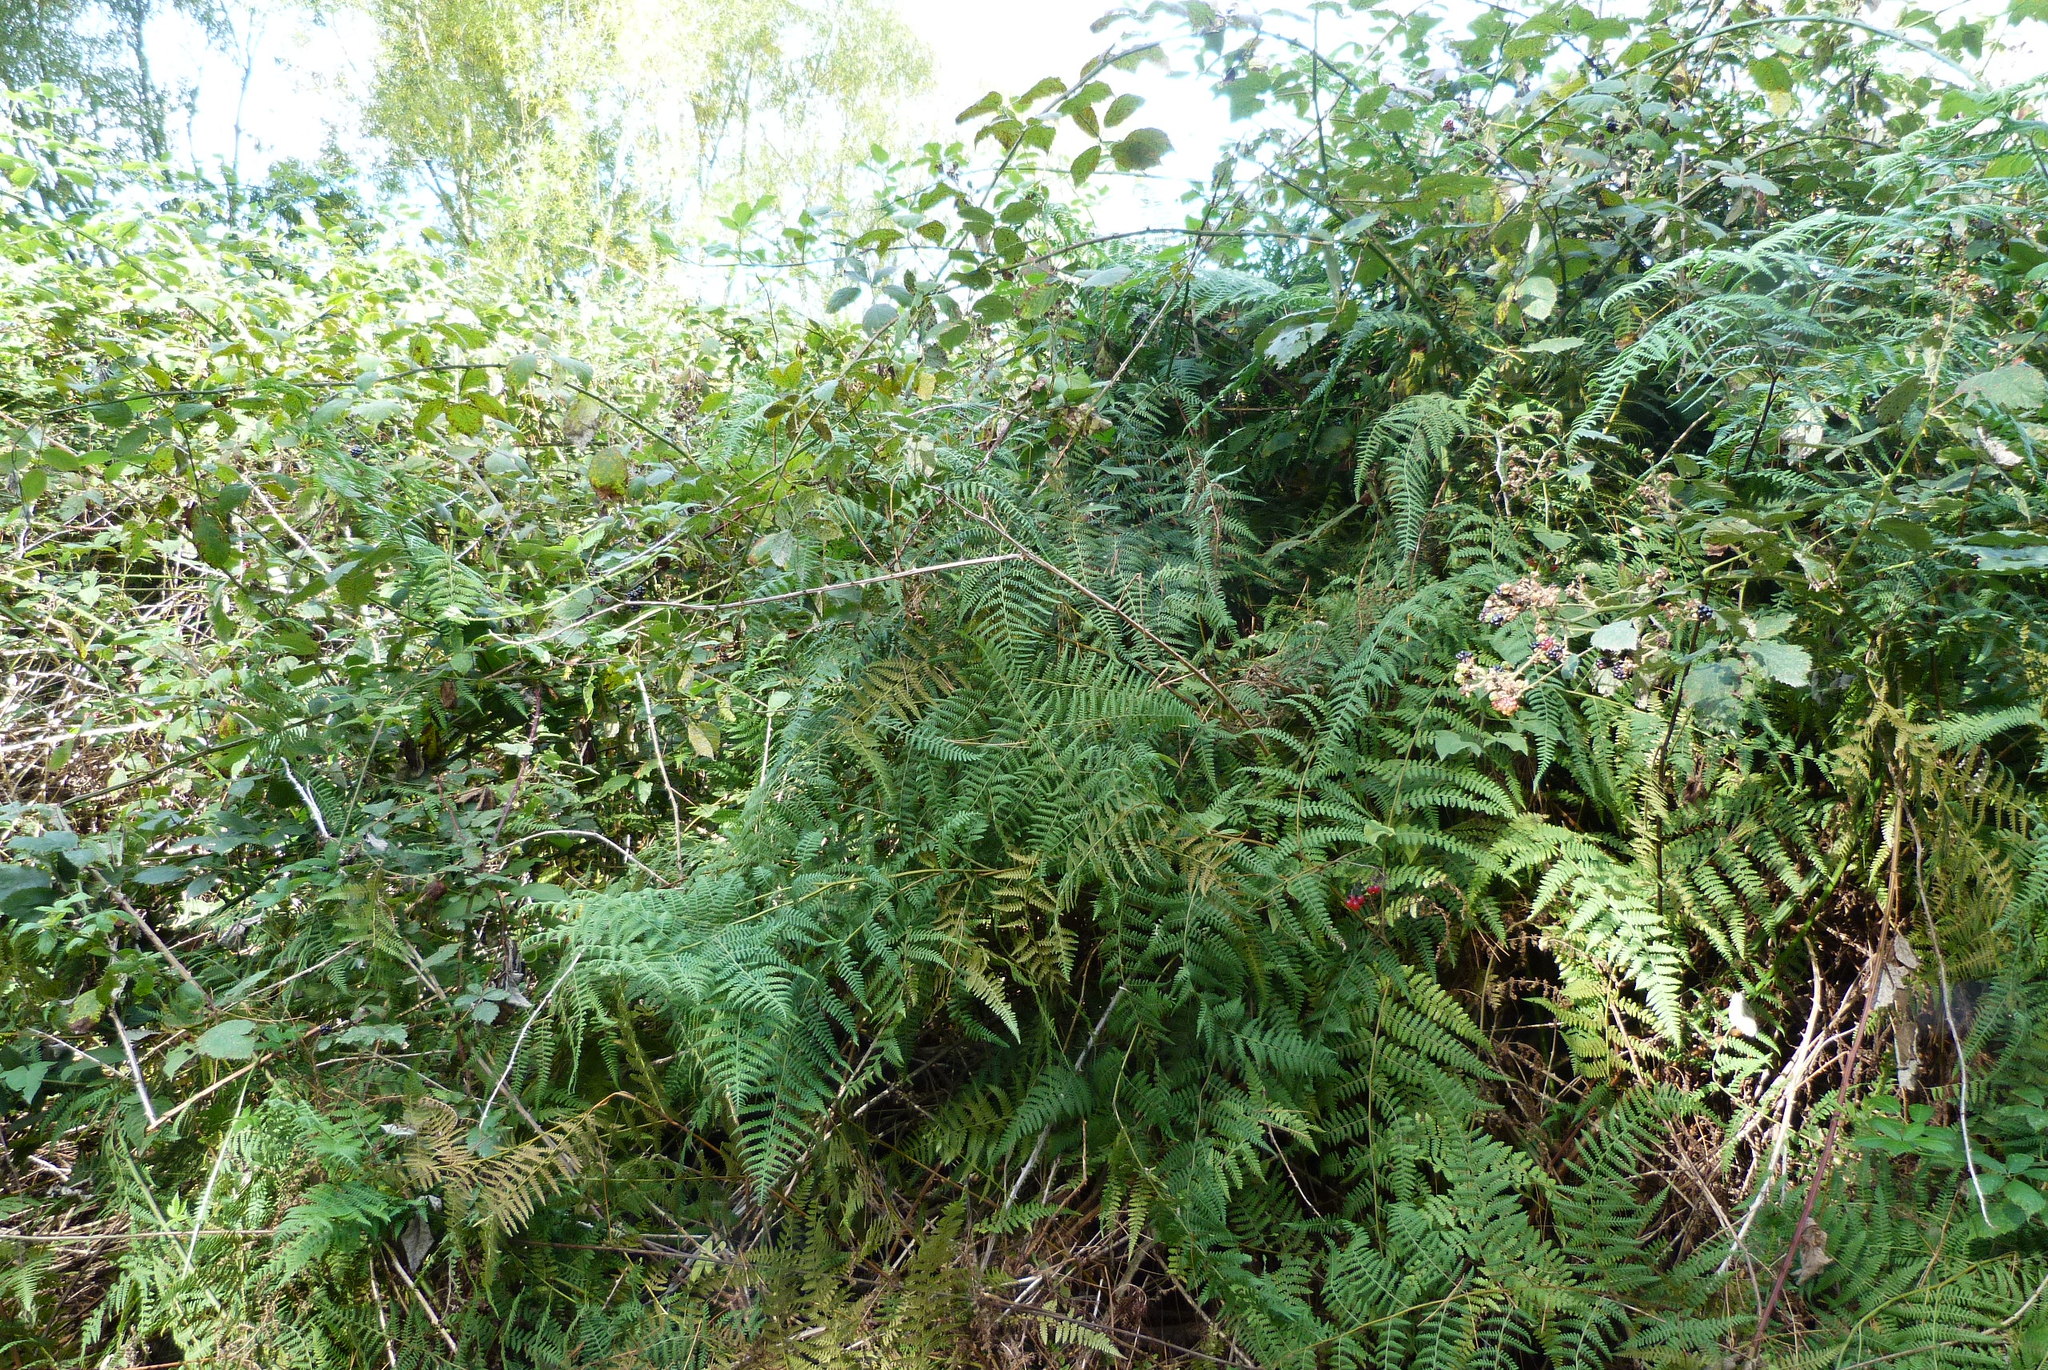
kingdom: Plantae
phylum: Tracheophyta
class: Polypodiopsida
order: Polypodiales
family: Dennstaedtiaceae
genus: Hypolepis
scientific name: Hypolepis ambigua
